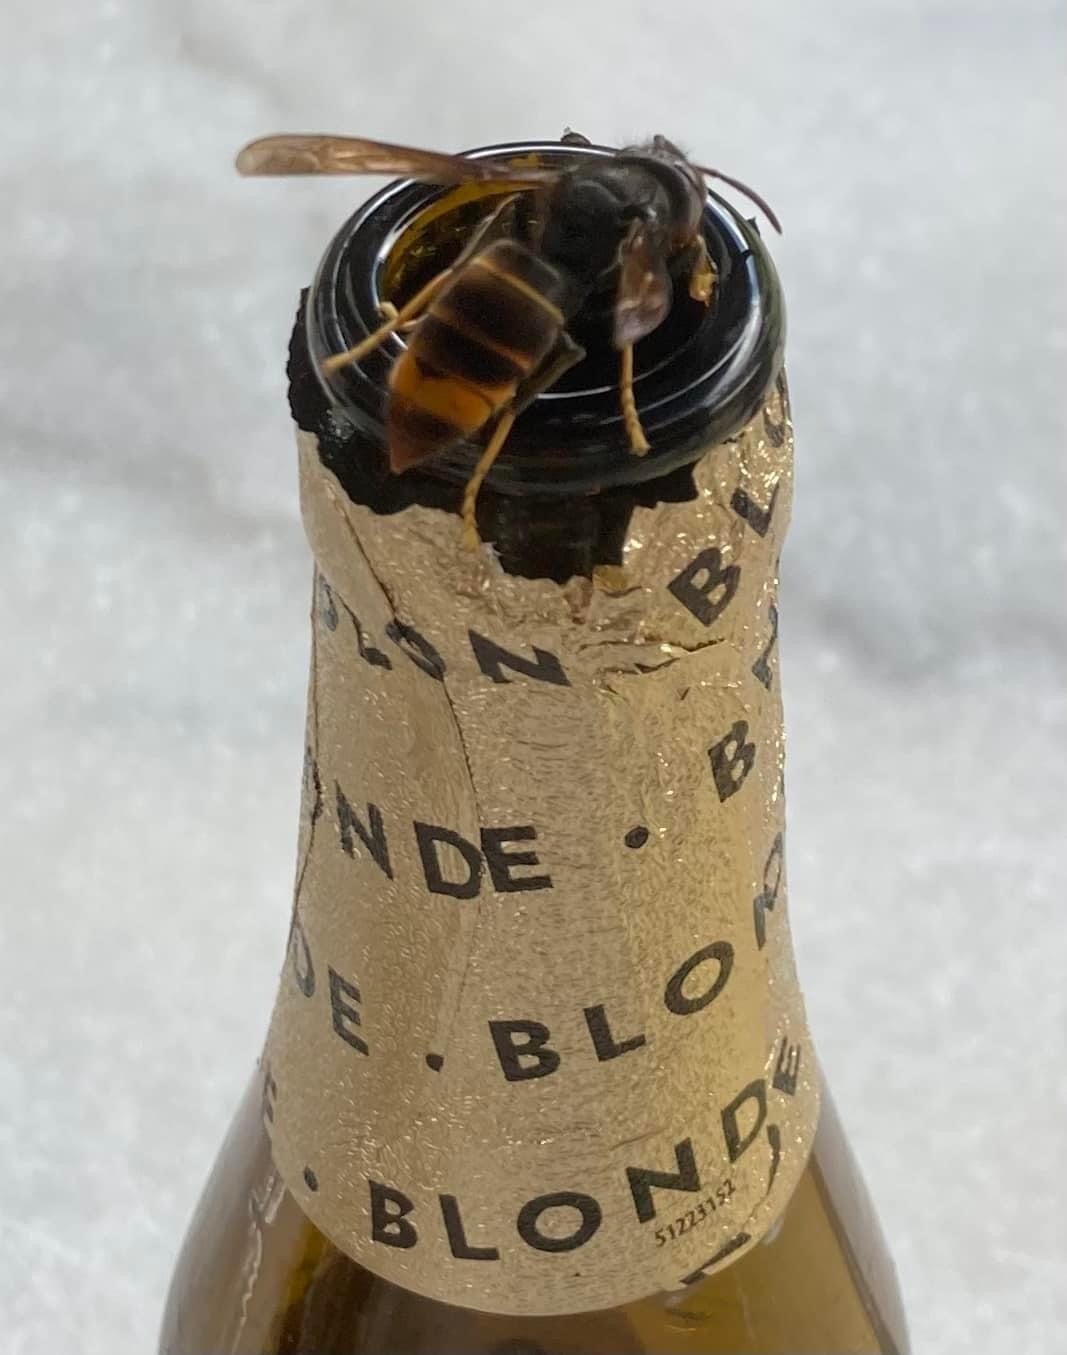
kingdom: Animalia
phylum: Arthropoda
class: Insecta
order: Hymenoptera
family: Vespidae
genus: Vespa
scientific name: Vespa velutina
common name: Asian hornet
